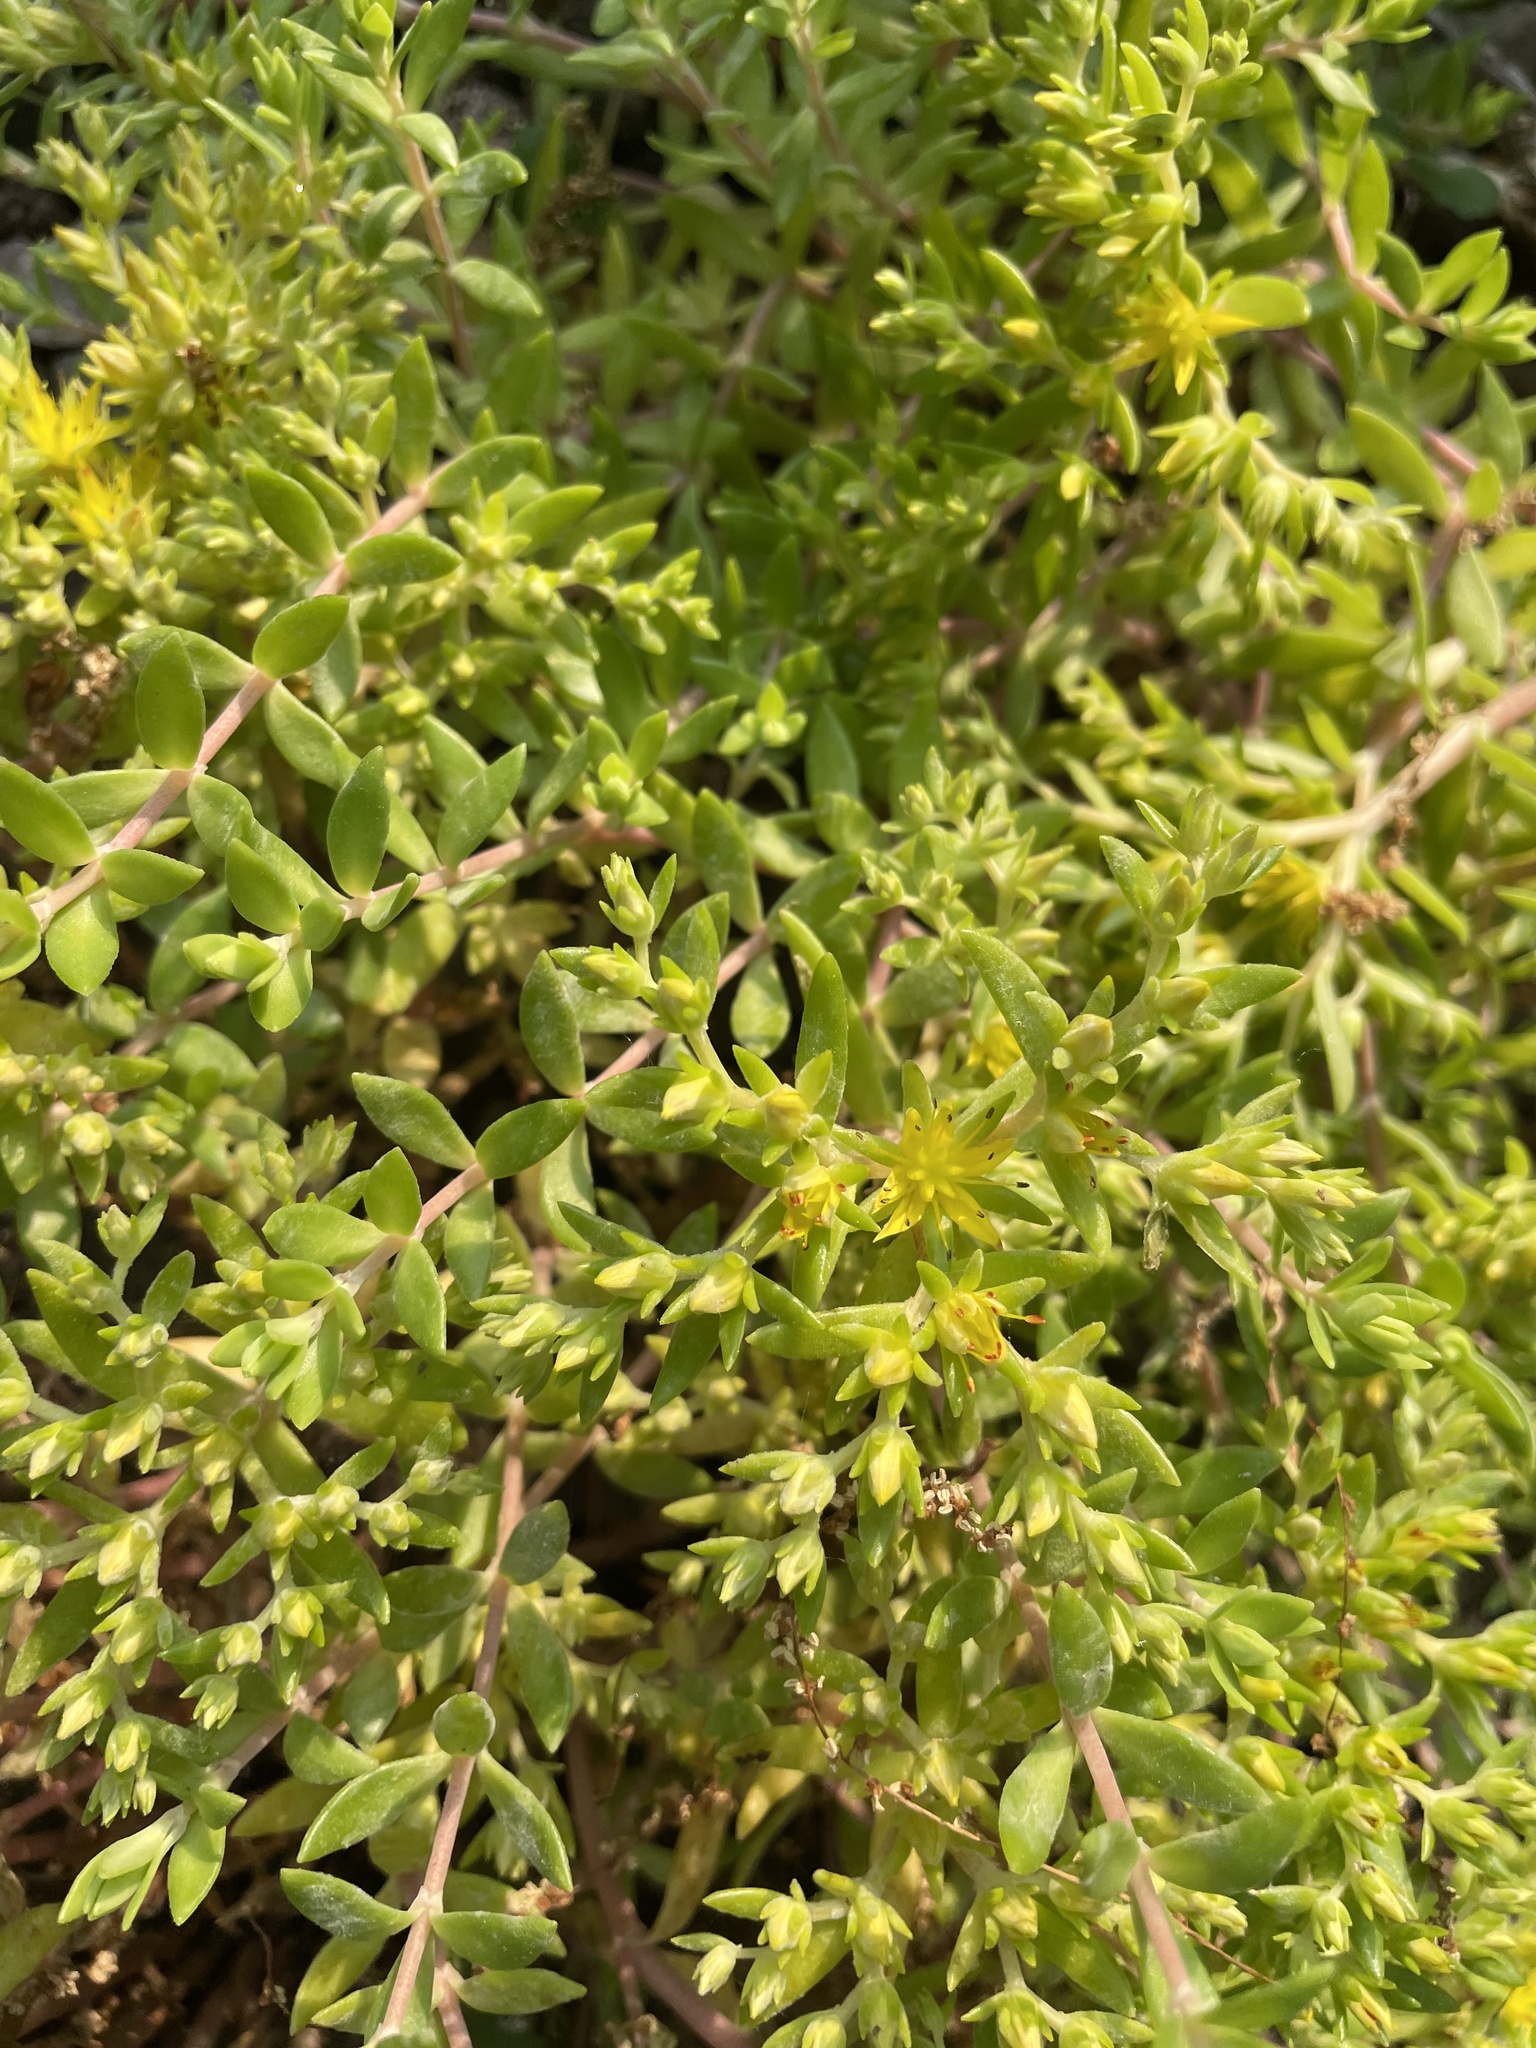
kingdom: Plantae
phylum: Tracheophyta
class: Magnoliopsida
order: Saxifragales
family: Crassulaceae
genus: Sedum
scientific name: Sedum sarmentosum
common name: Stringy stonecrop
